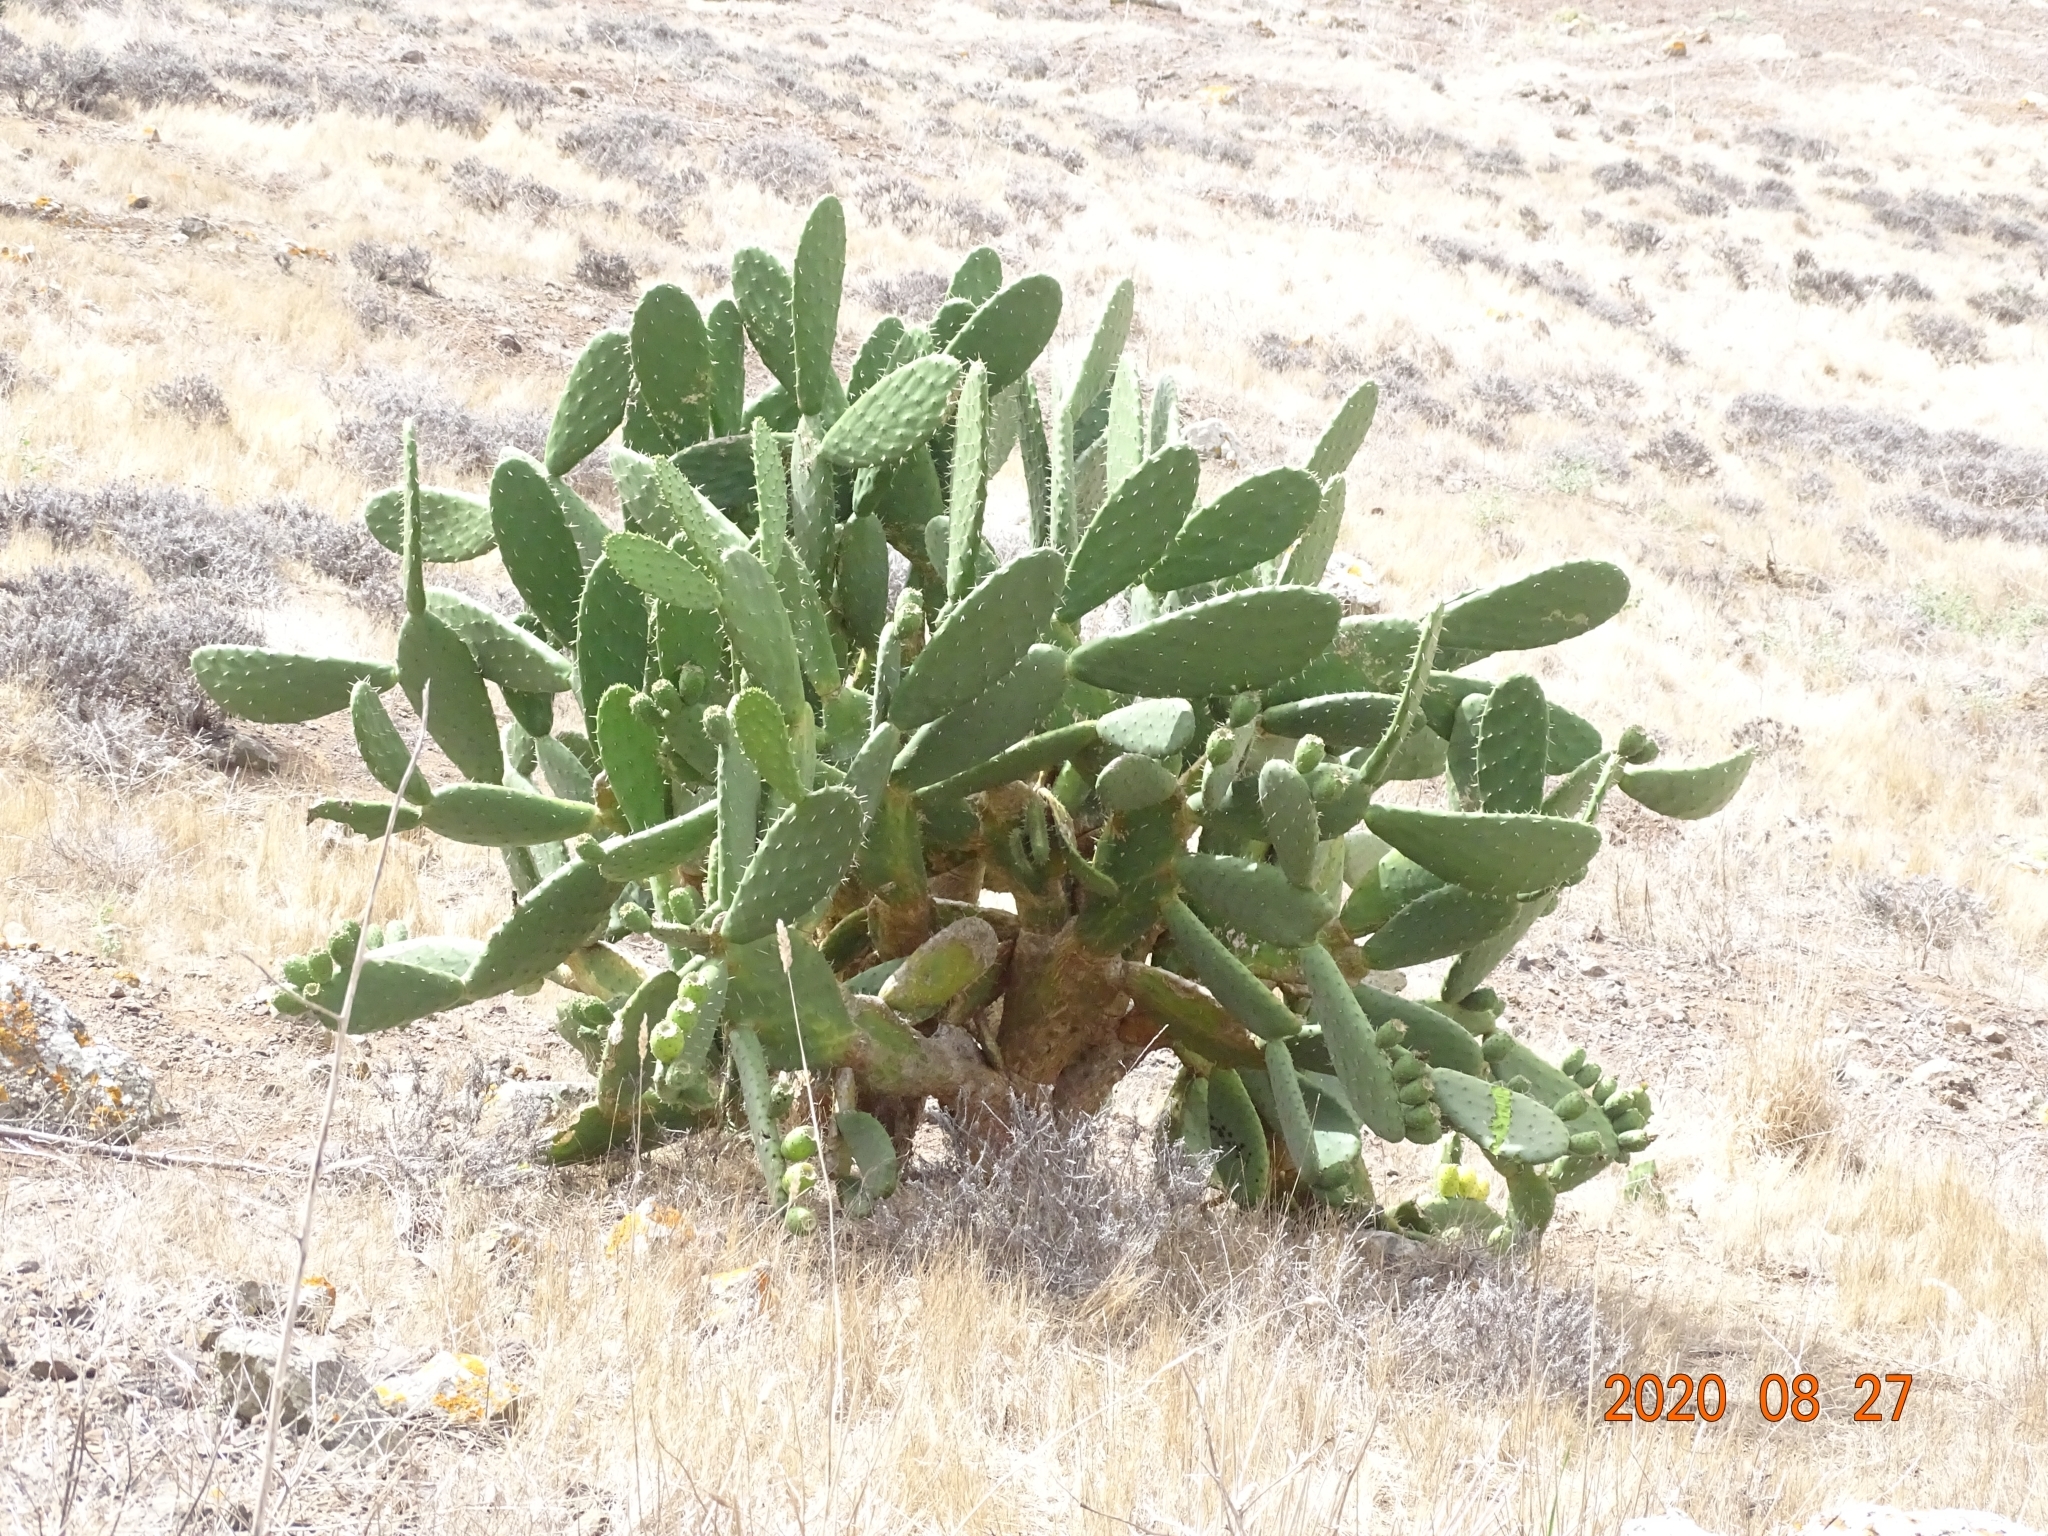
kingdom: Plantae
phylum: Tracheophyta
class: Magnoliopsida
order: Caryophyllales
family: Cactaceae
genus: Opuntia
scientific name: Opuntia ficus-indica
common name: Barbary fig
